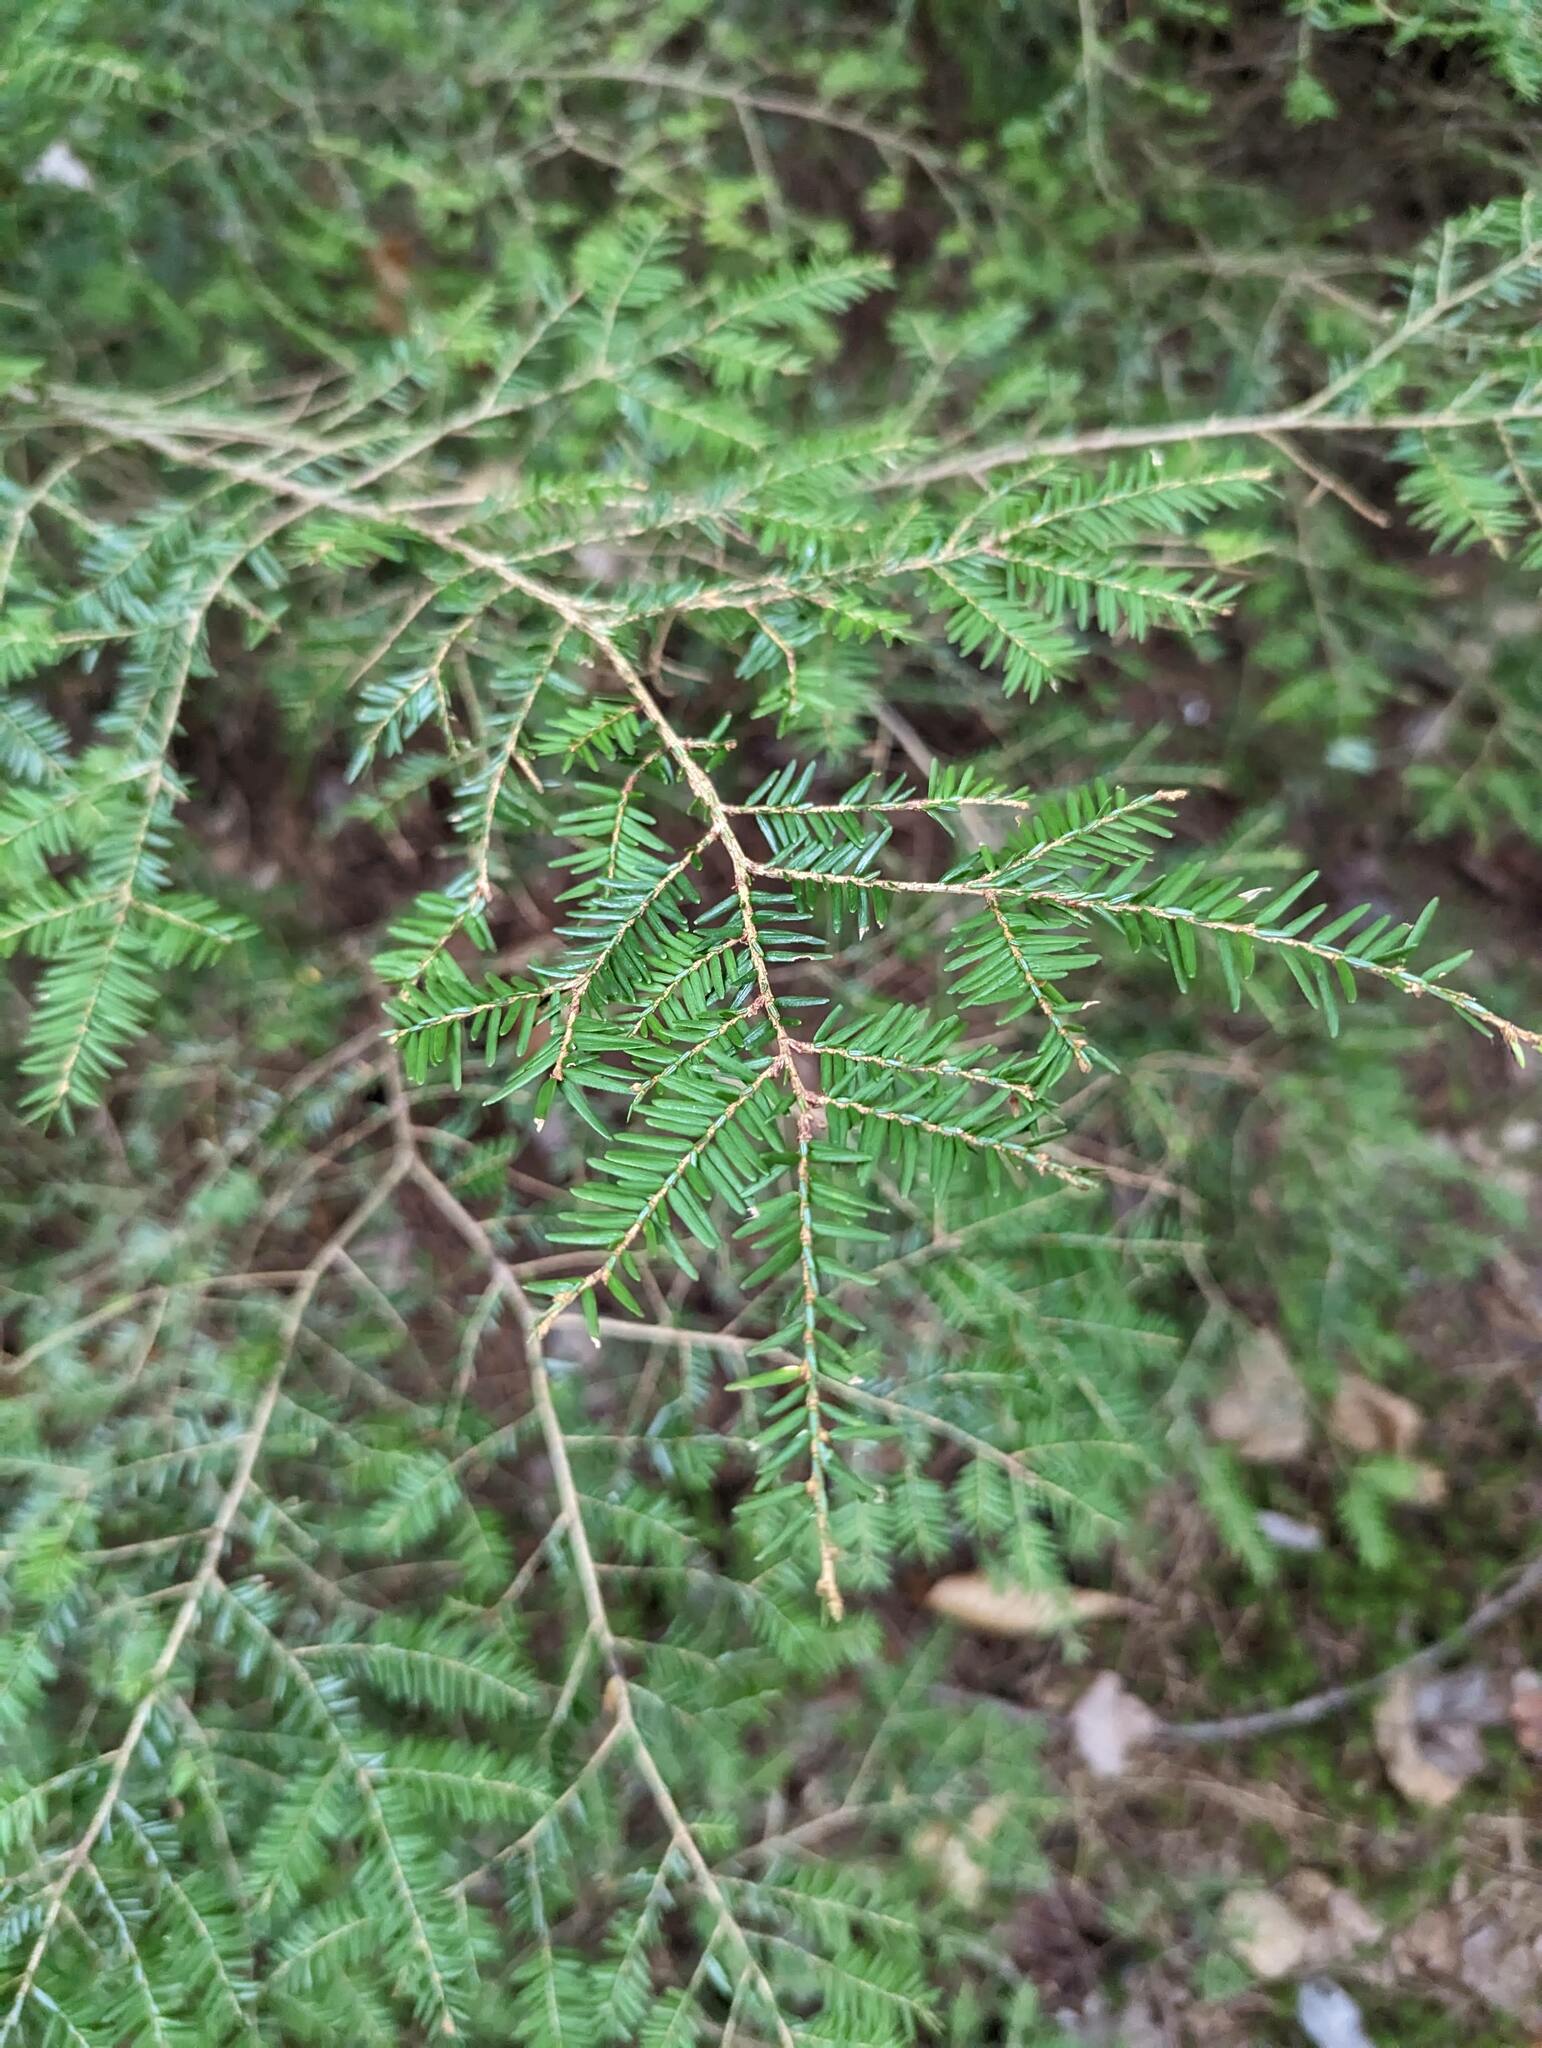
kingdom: Plantae
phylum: Tracheophyta
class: Pinopsida
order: Pinales
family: Pinaceae
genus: Tsuga
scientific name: Tsuga canadensis
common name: Eastern hemlock
